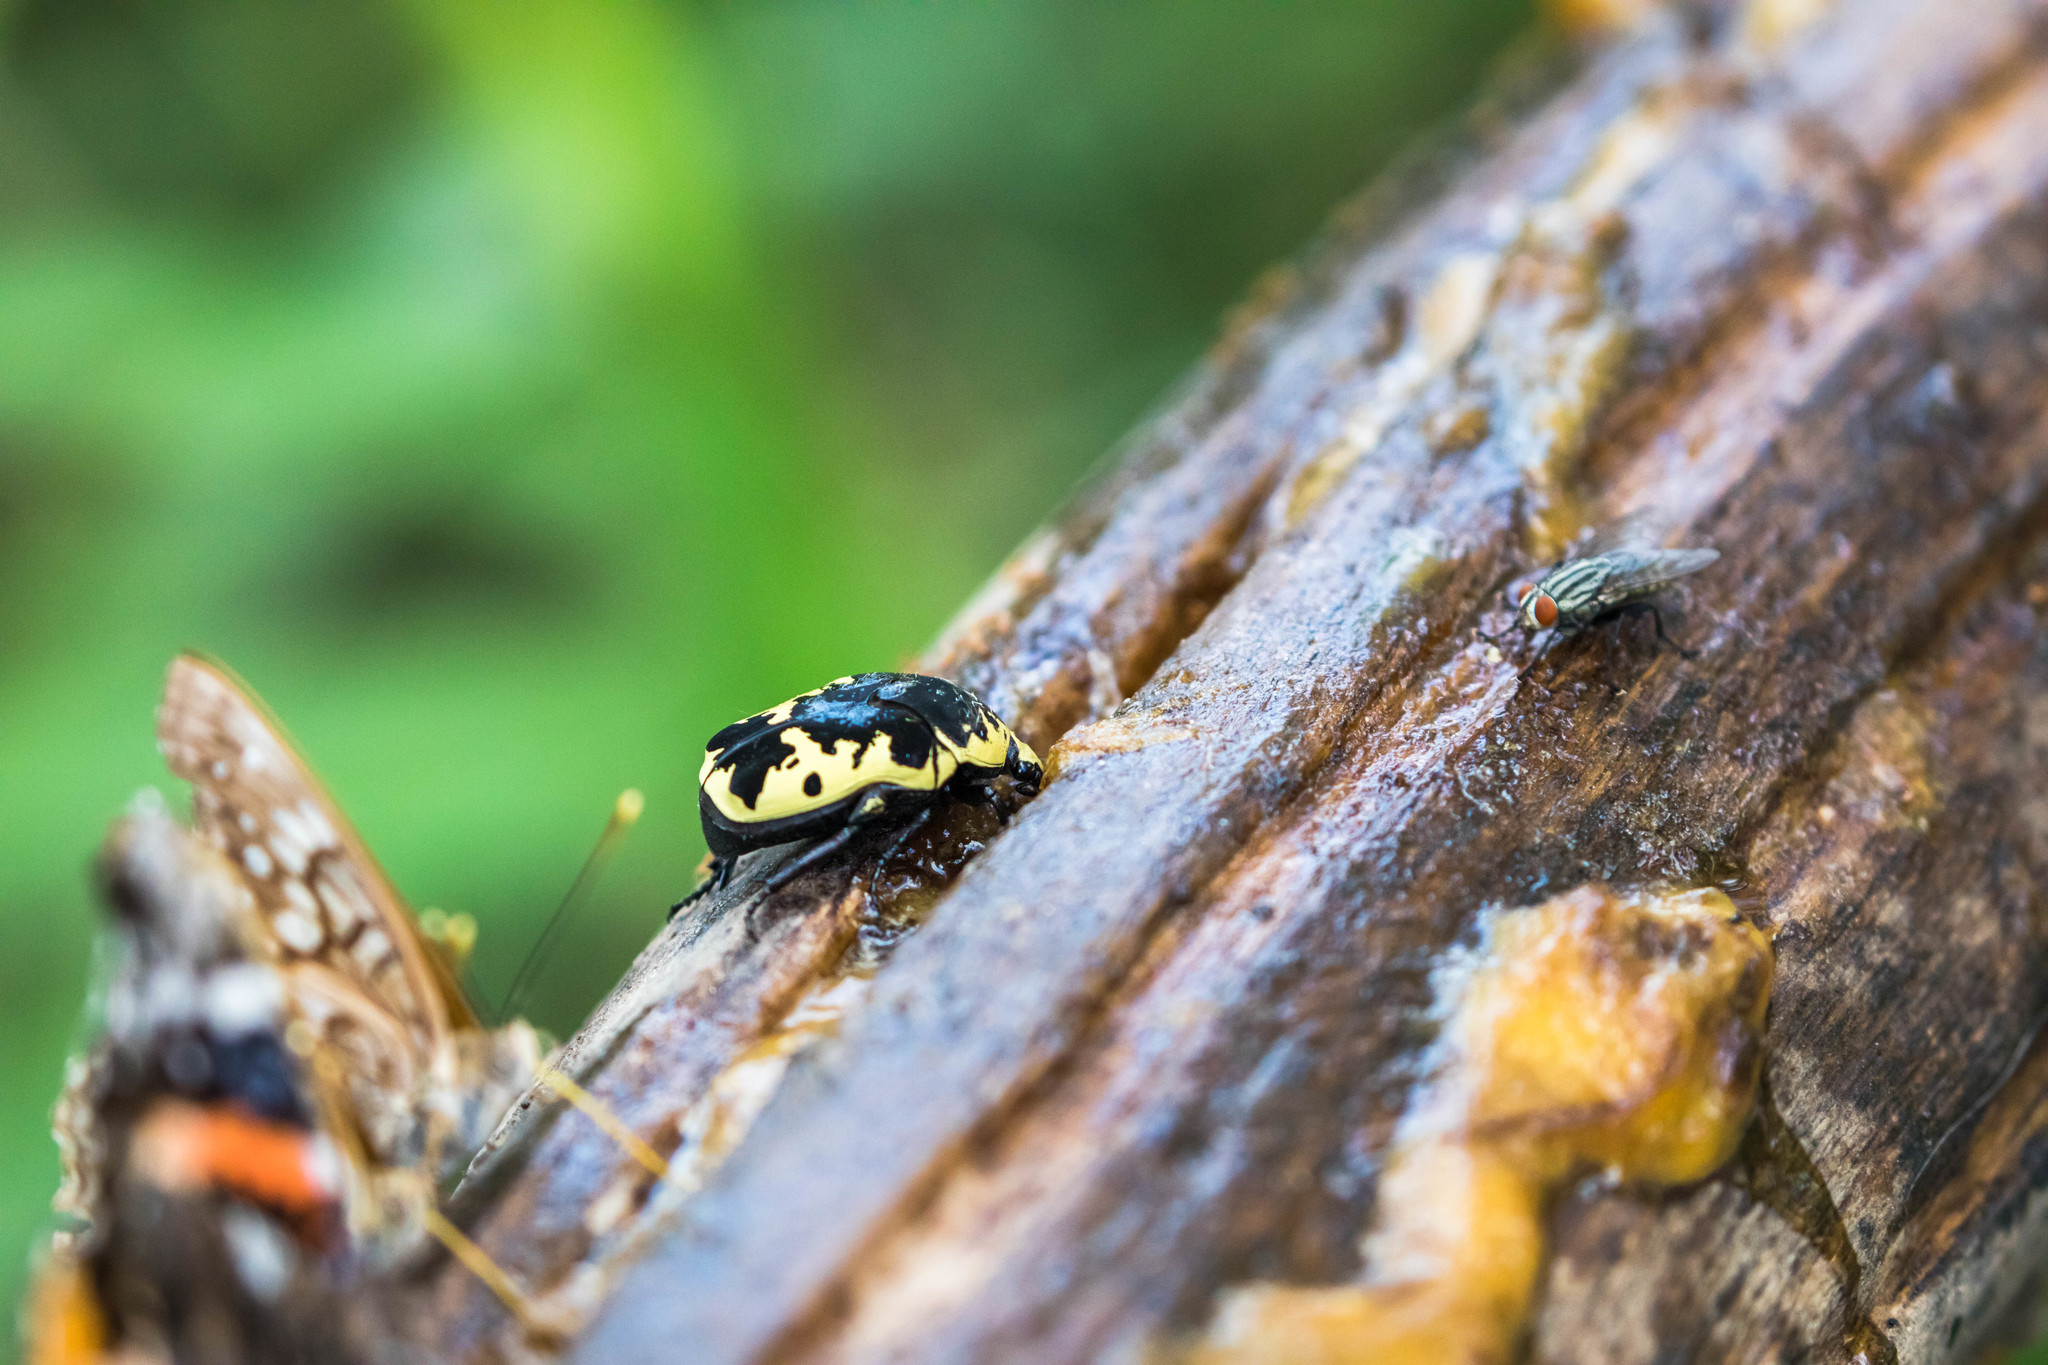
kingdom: Animalia
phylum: Arthropoda
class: Insecta
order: Coleoptera
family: Scarabaeidae
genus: Gymnetis
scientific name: Gymnetis thula
